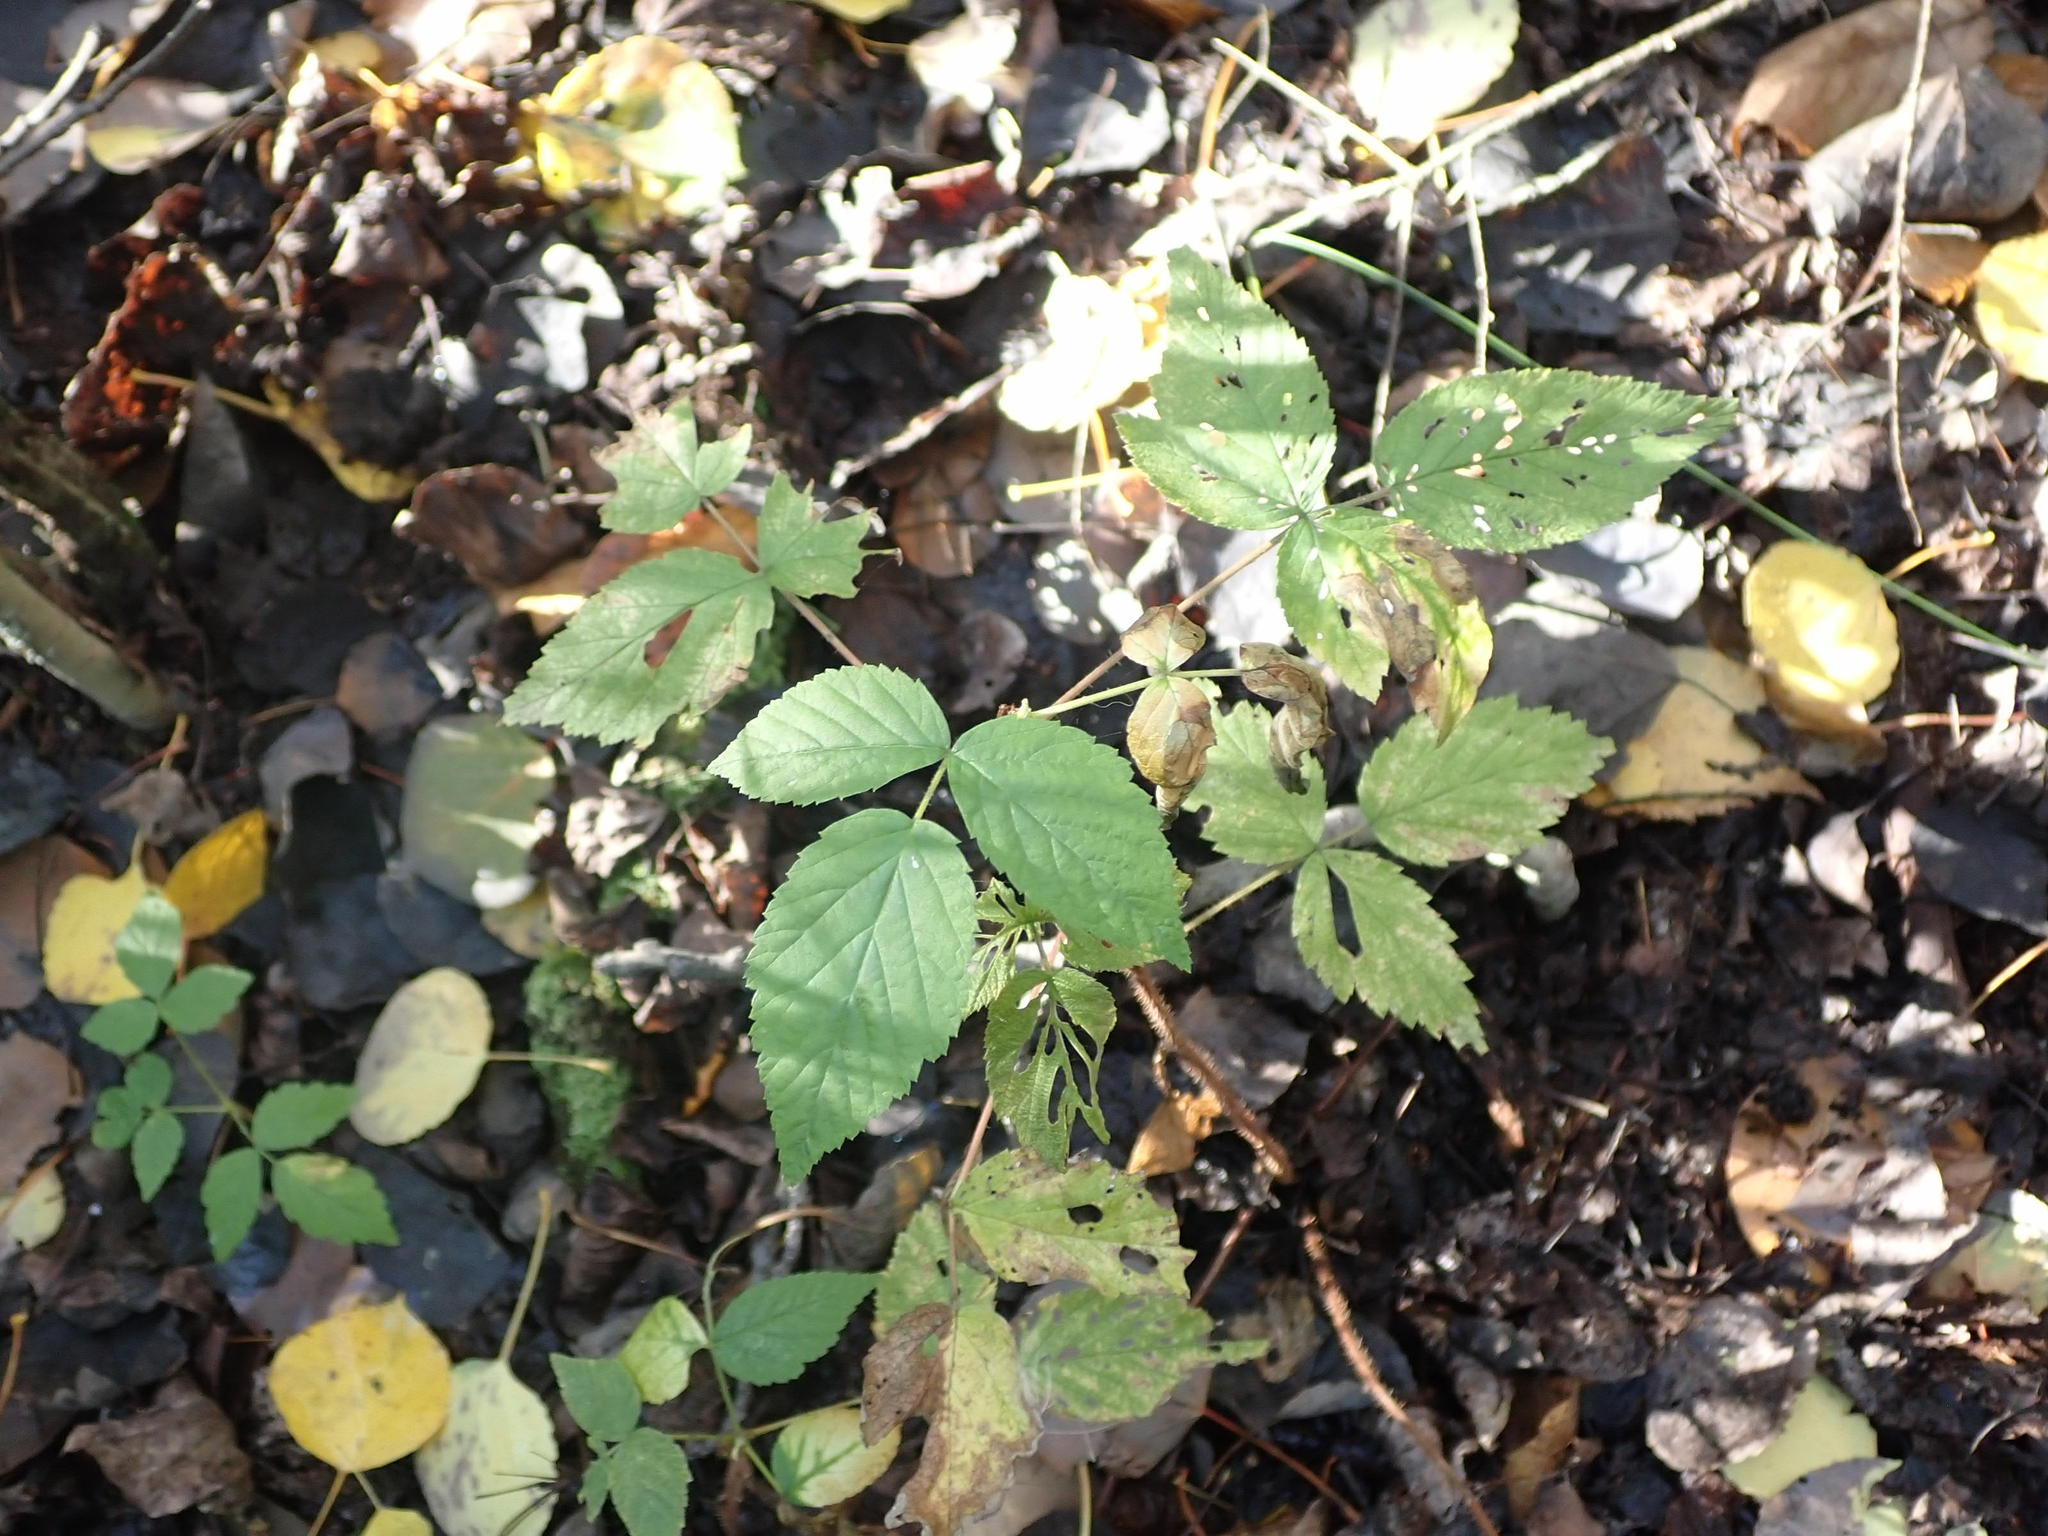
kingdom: Plantae
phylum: Tracheophyta
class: Magnoliopsida
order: Rosales
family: Rosaceae
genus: Rubus
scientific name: Rubus idaeus
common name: Raspberry
